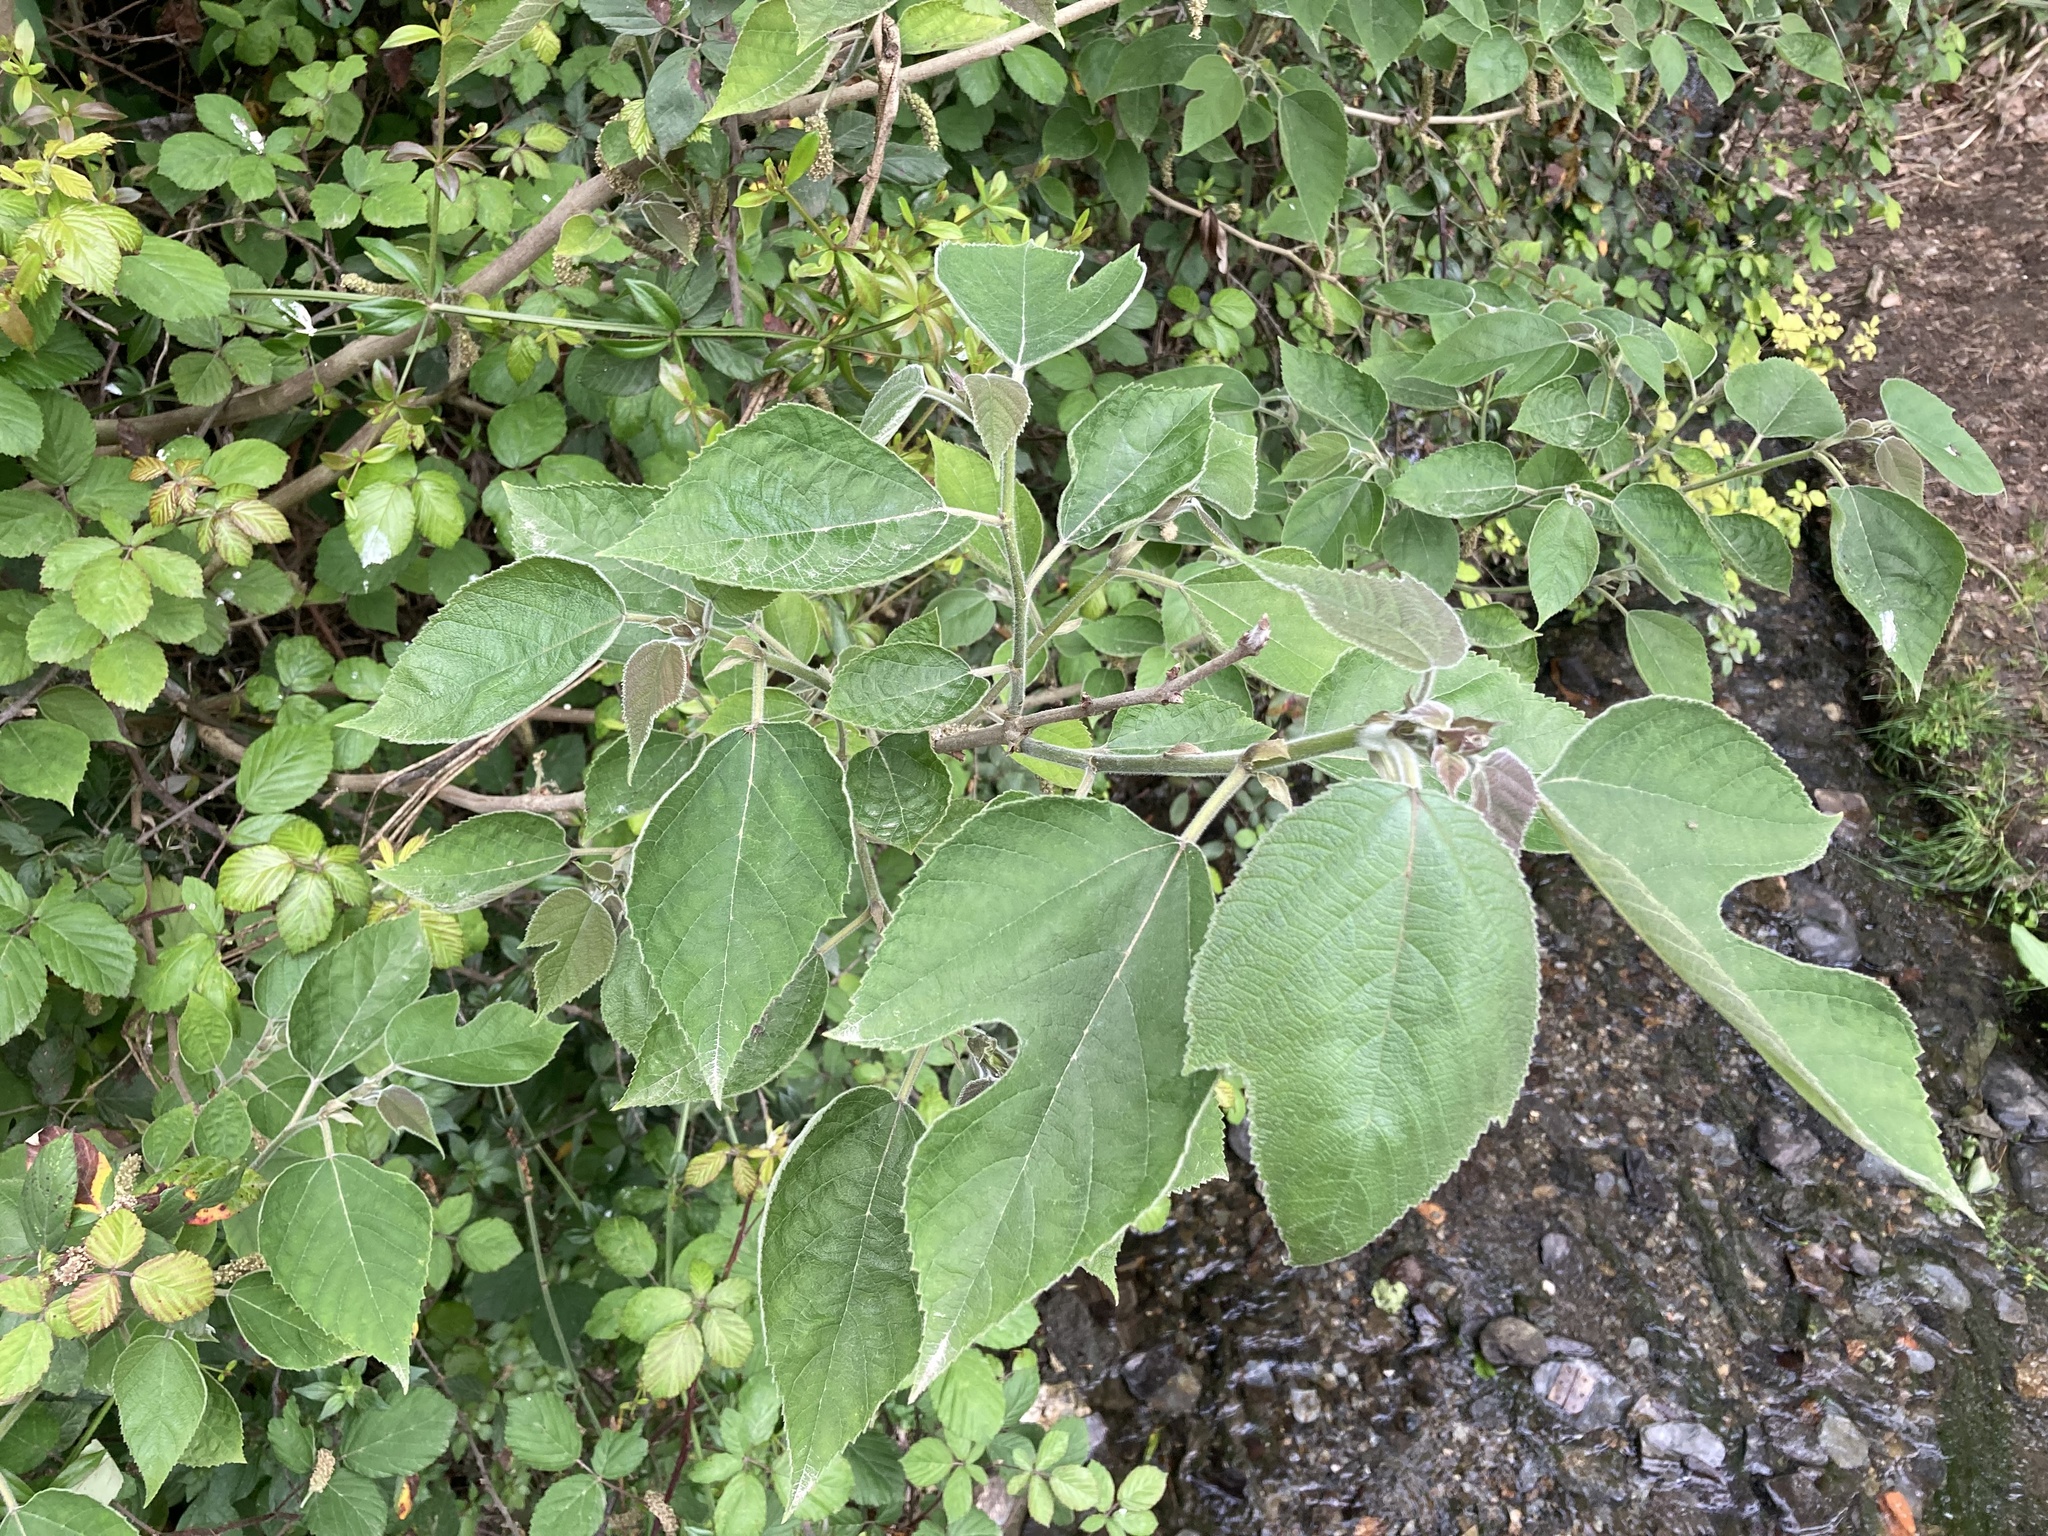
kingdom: Plantae
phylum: Tracheophyta
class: Magnoliopsida
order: Rosales
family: Moraceae
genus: Broussonetia
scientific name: Broussonetia papyrifera
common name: Paper mulberry
